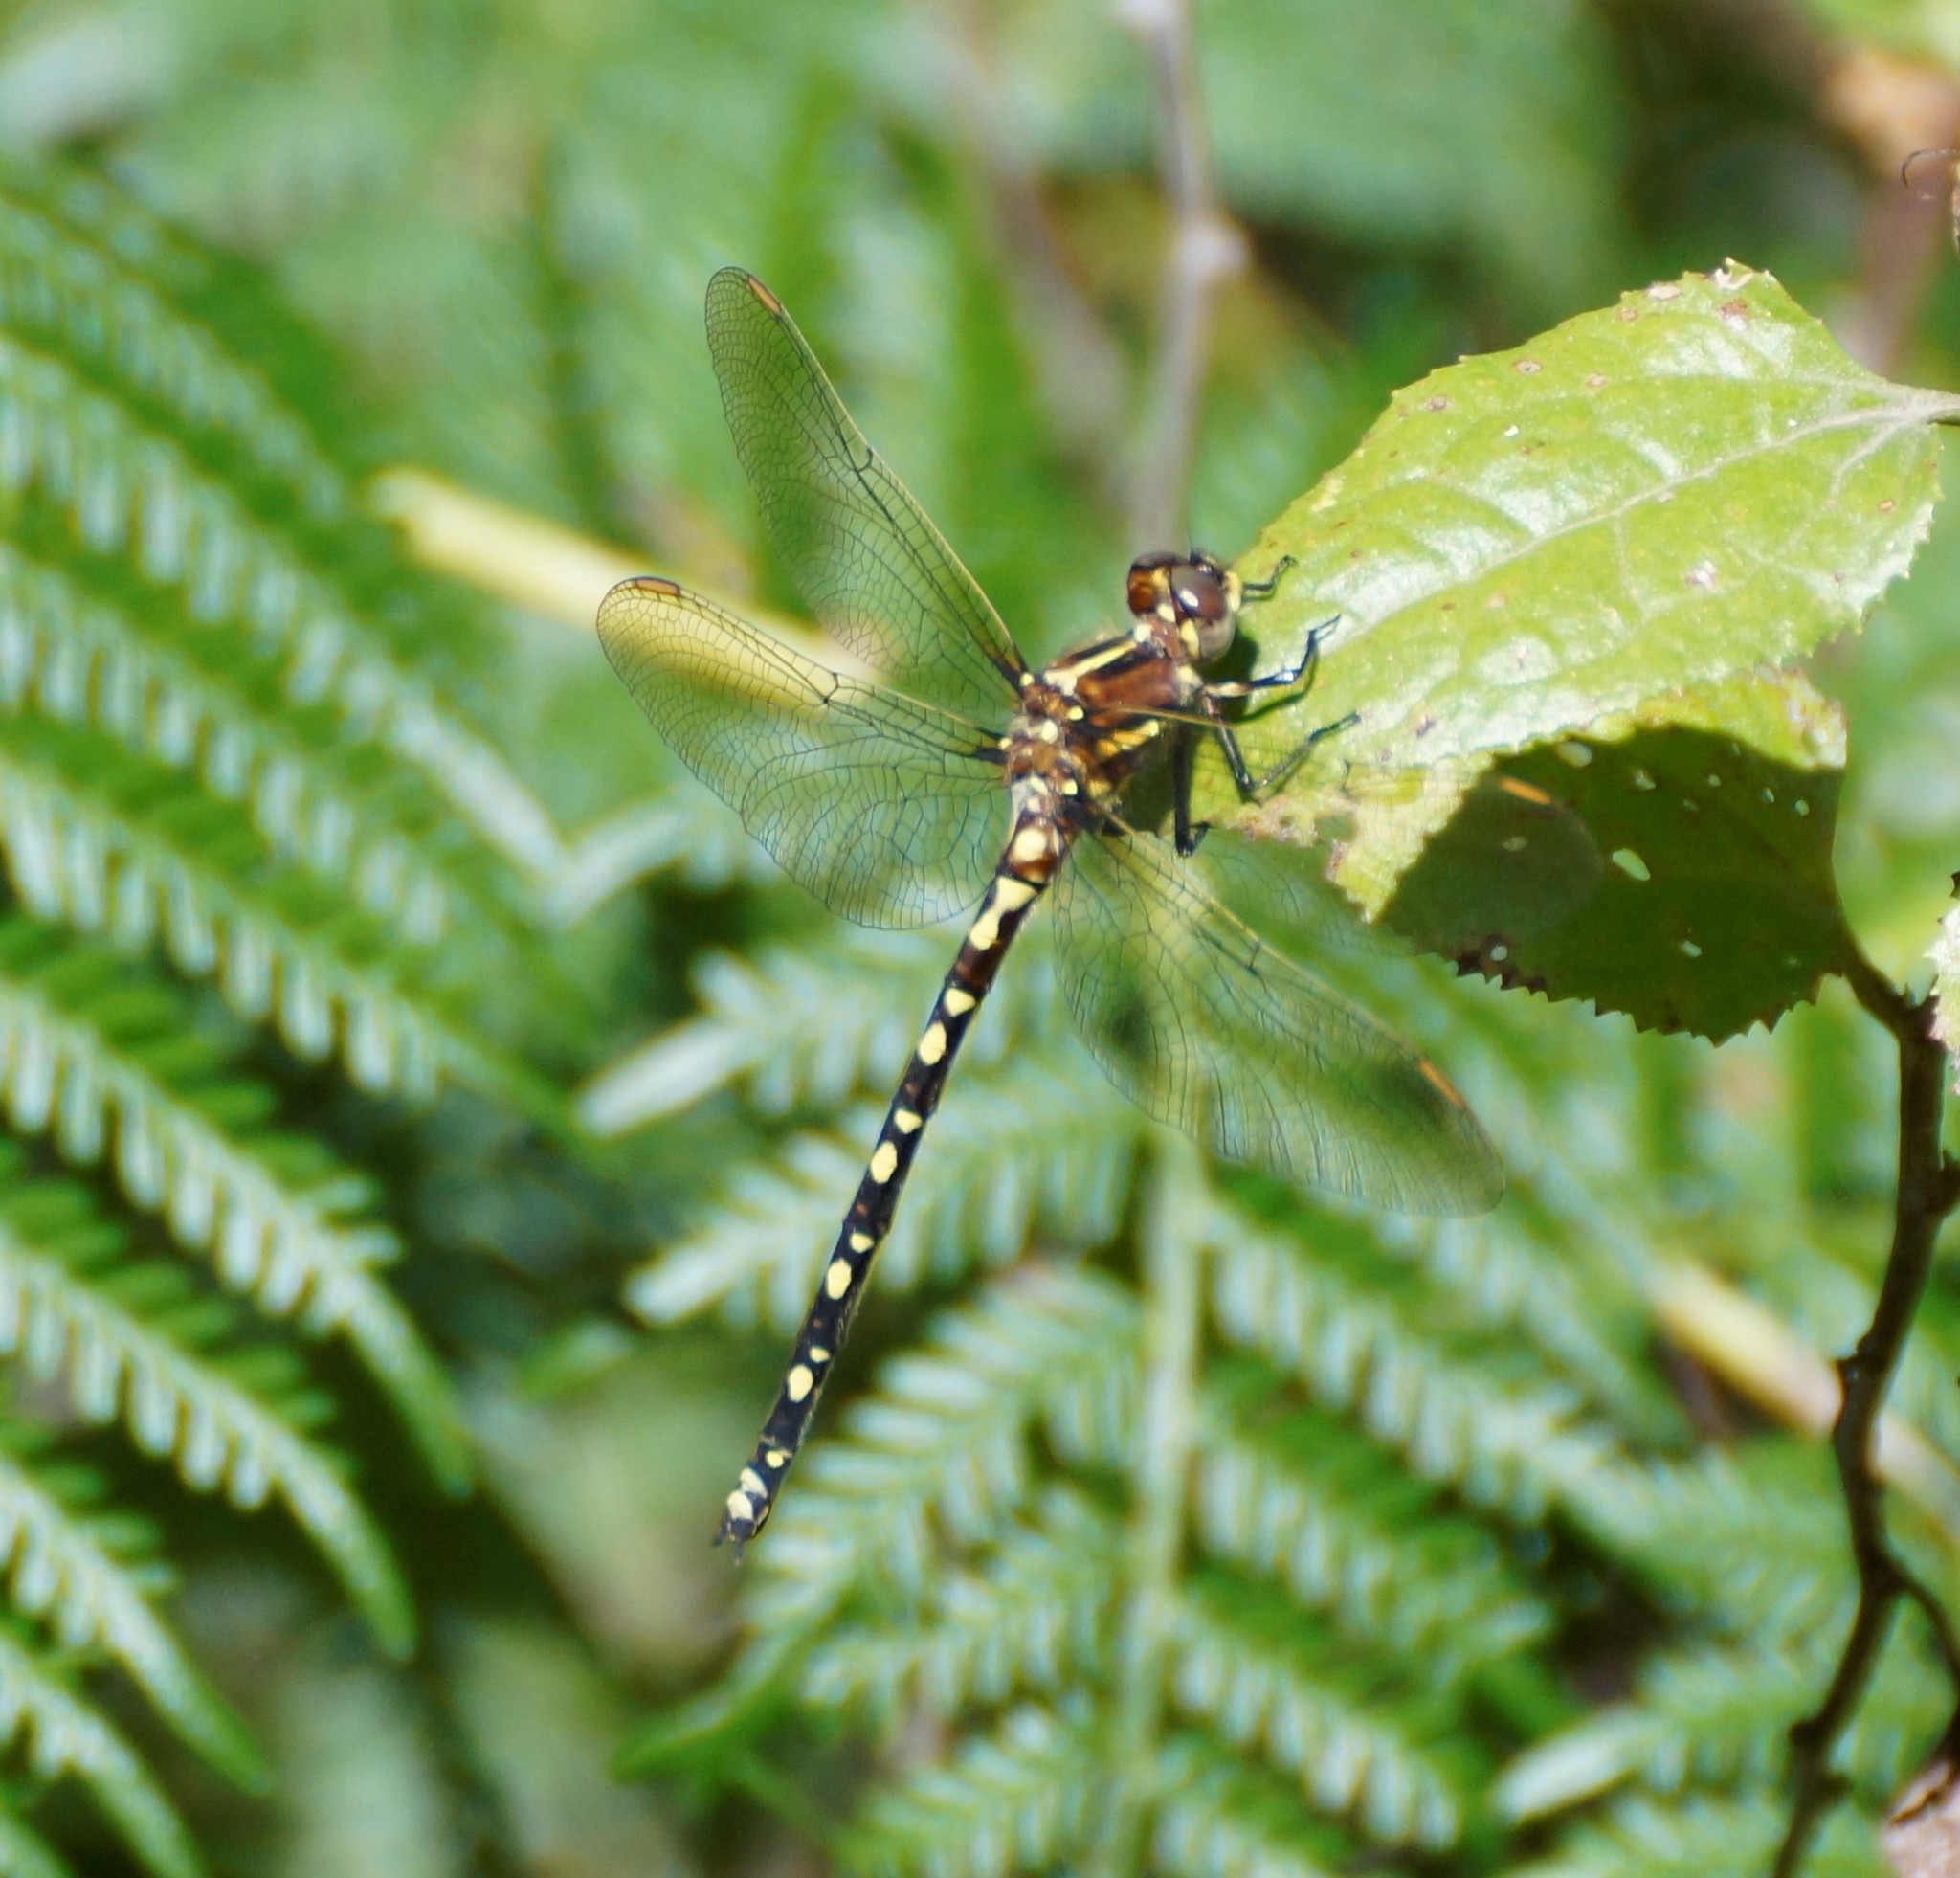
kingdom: Animalia
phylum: Arthropoda
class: Insecta
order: Odonata
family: Synthemistidae
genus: Synthemis
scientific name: Synthemis eustalacta
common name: Swamp tigertail
